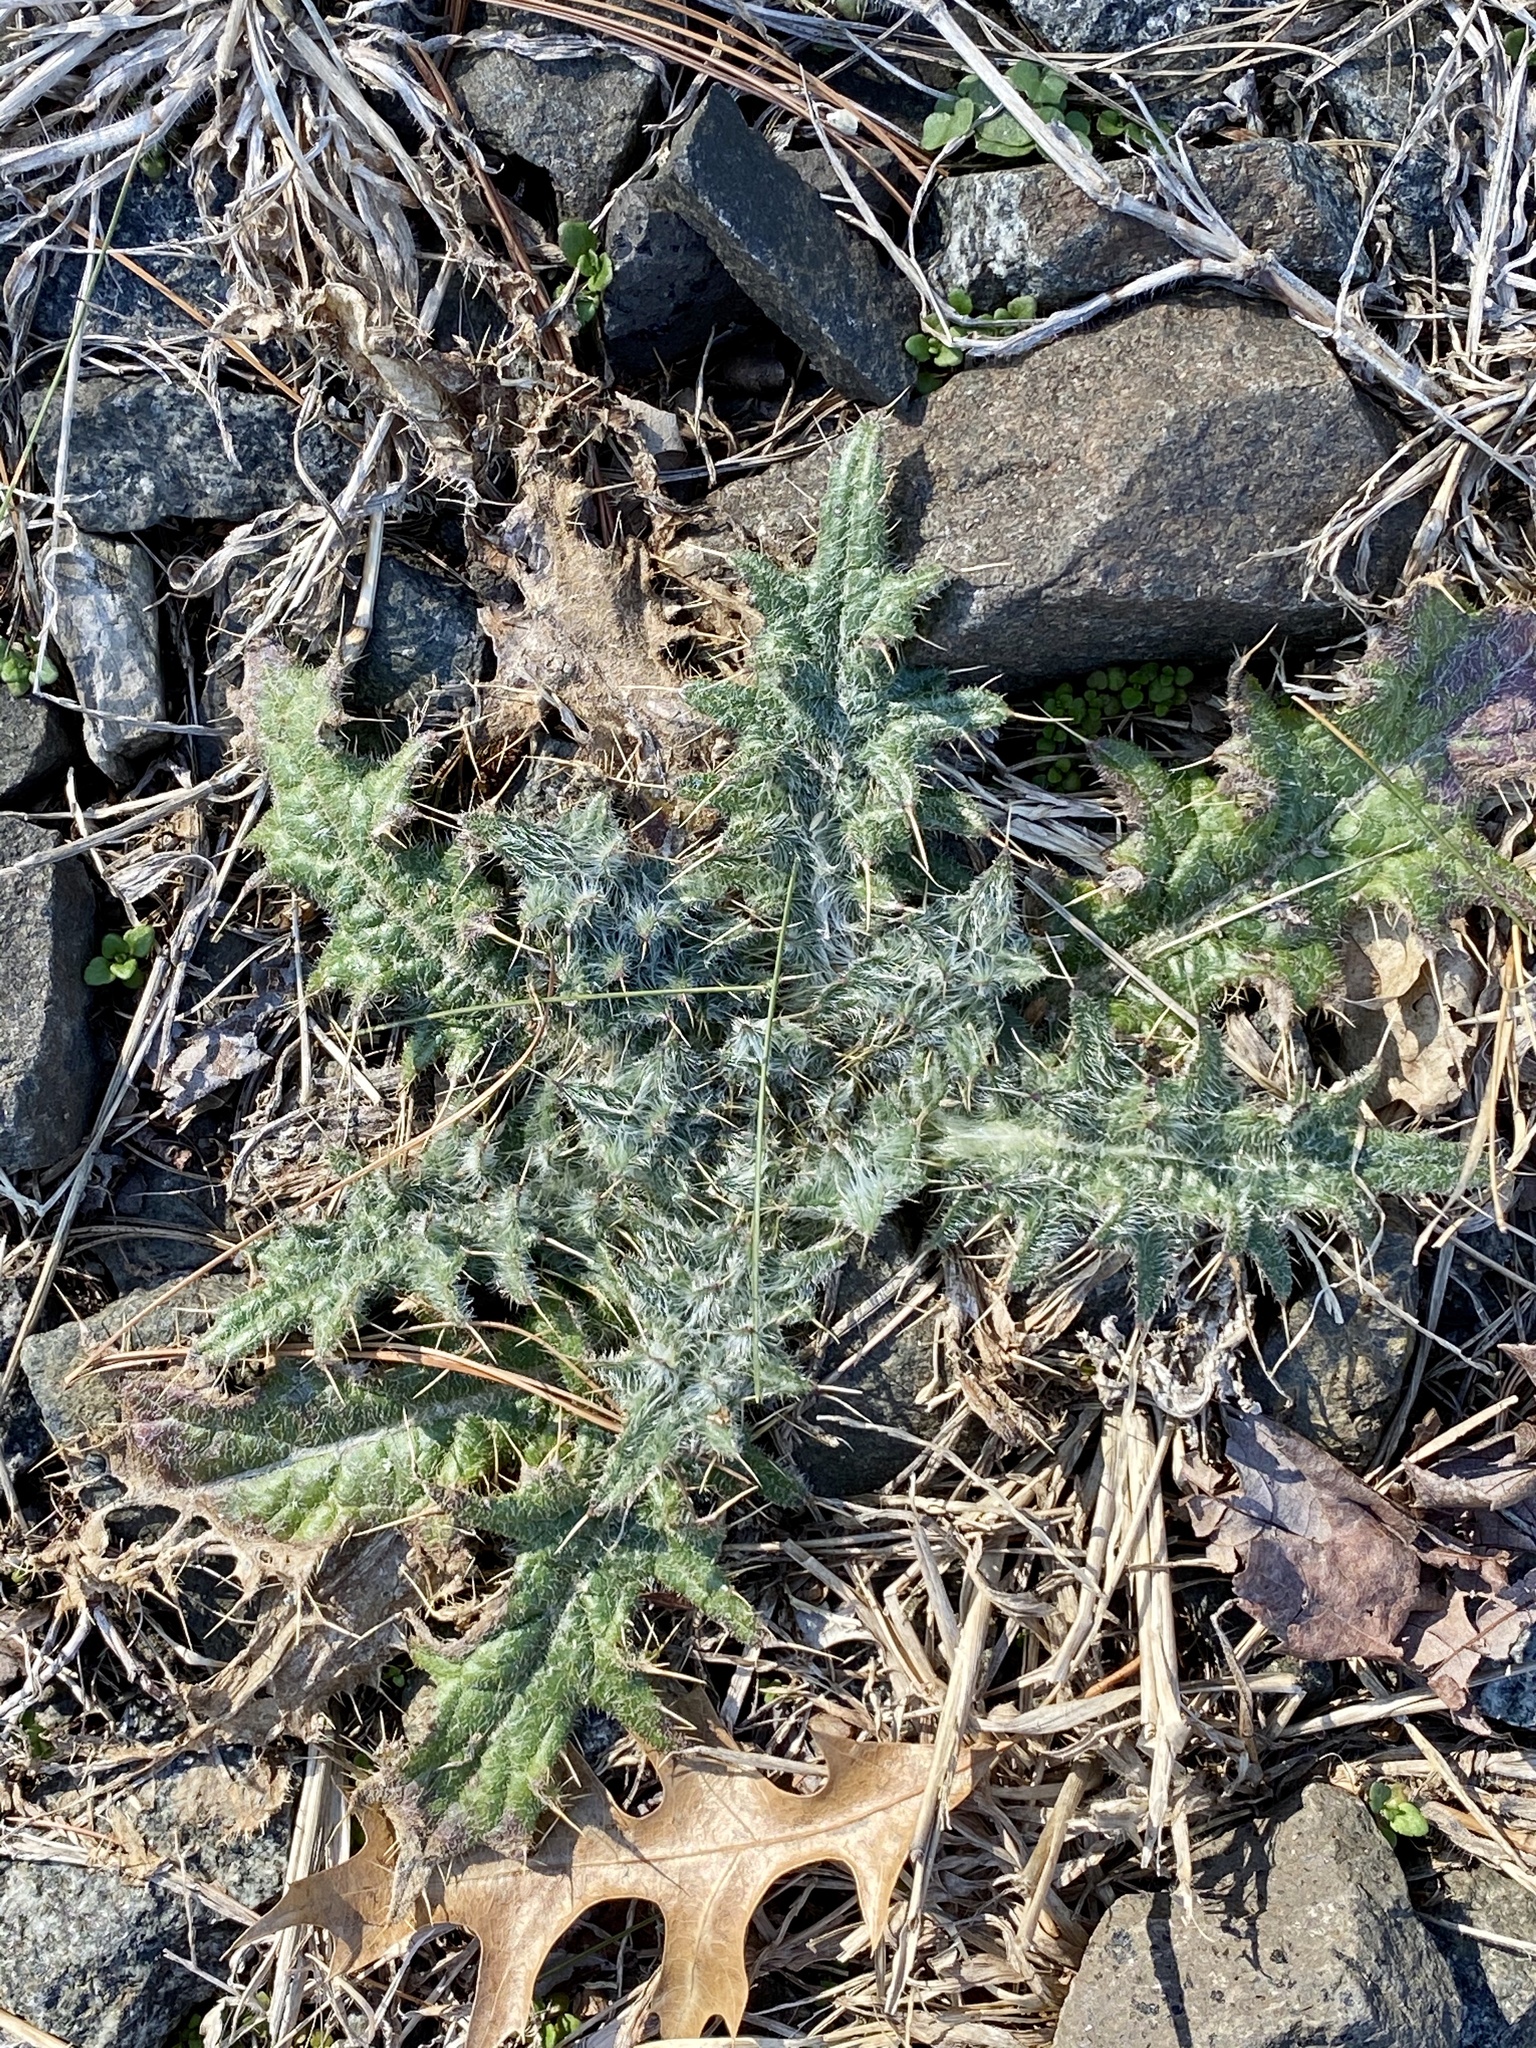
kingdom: Plantae
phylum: Tracheophyta
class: Magnoliopsida
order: Asterales
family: Asteraceae
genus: Cirsium
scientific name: Cirsium vulgare
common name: Bull thistle
